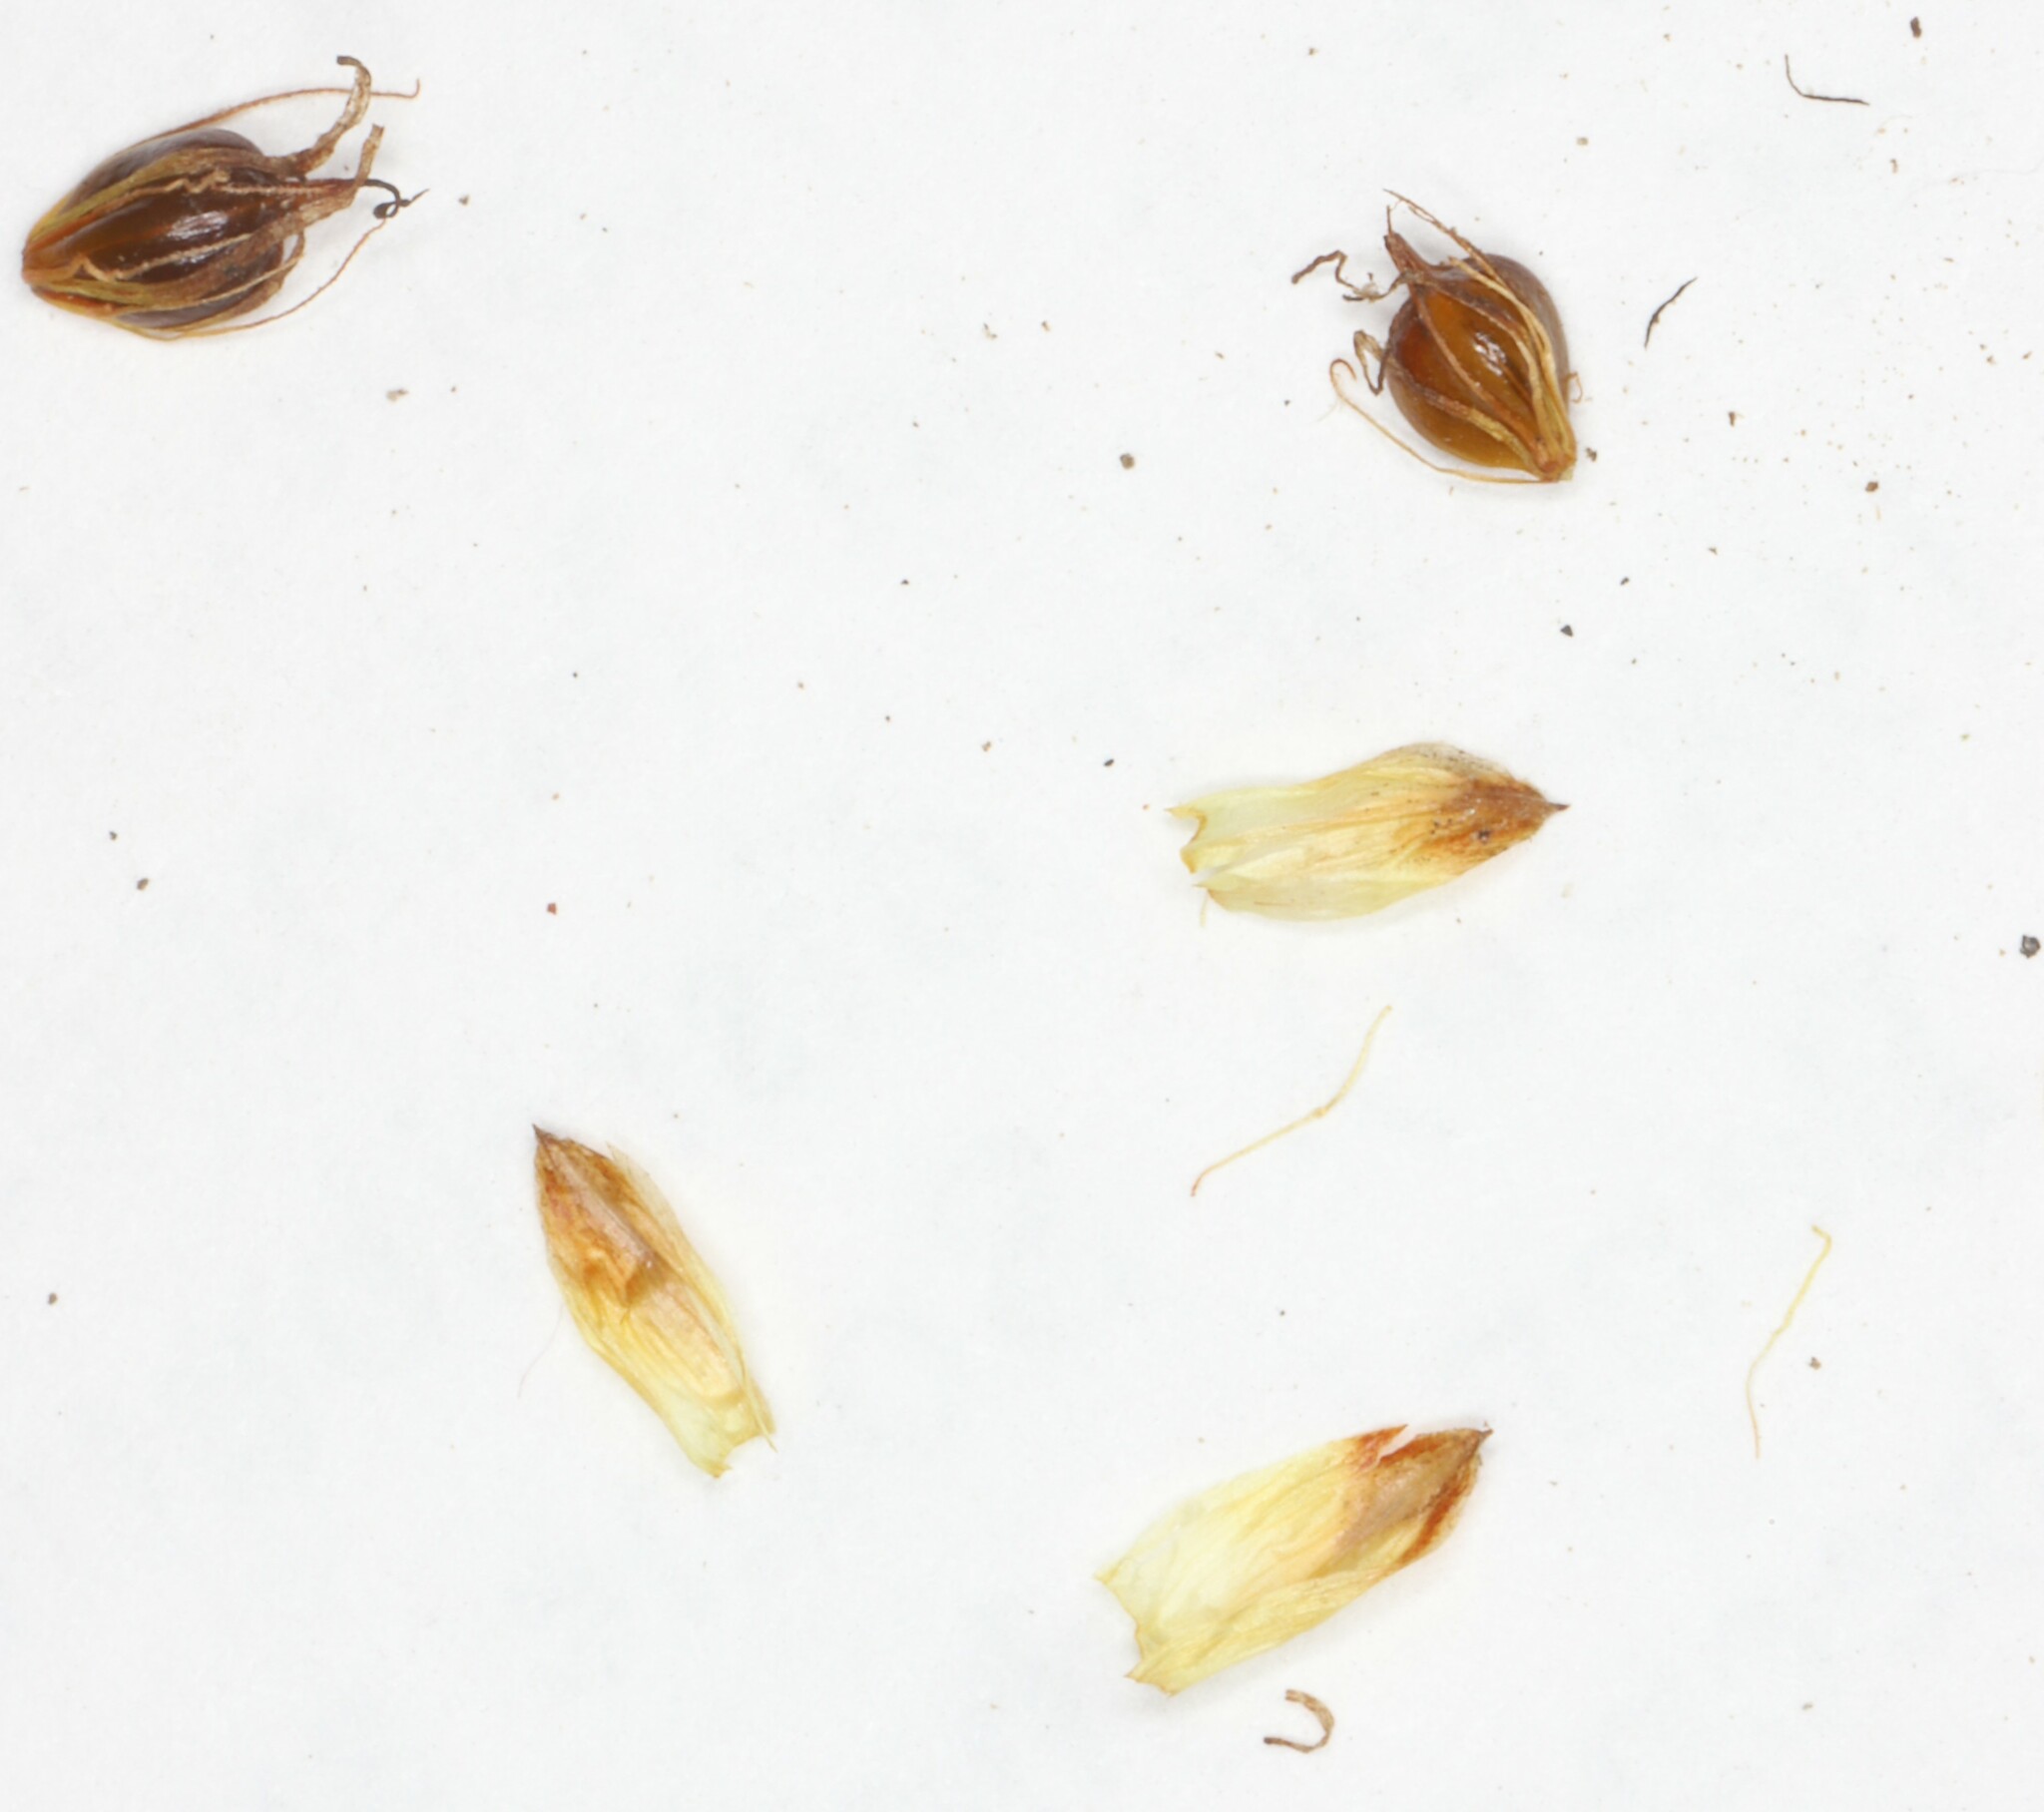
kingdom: Plantae
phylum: Tracheophyta
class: Liliopsida
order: Poales
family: Cyperaceae
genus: Schoenoplectus
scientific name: Schoenoplectus torreyi
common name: Torrey's bulrush
